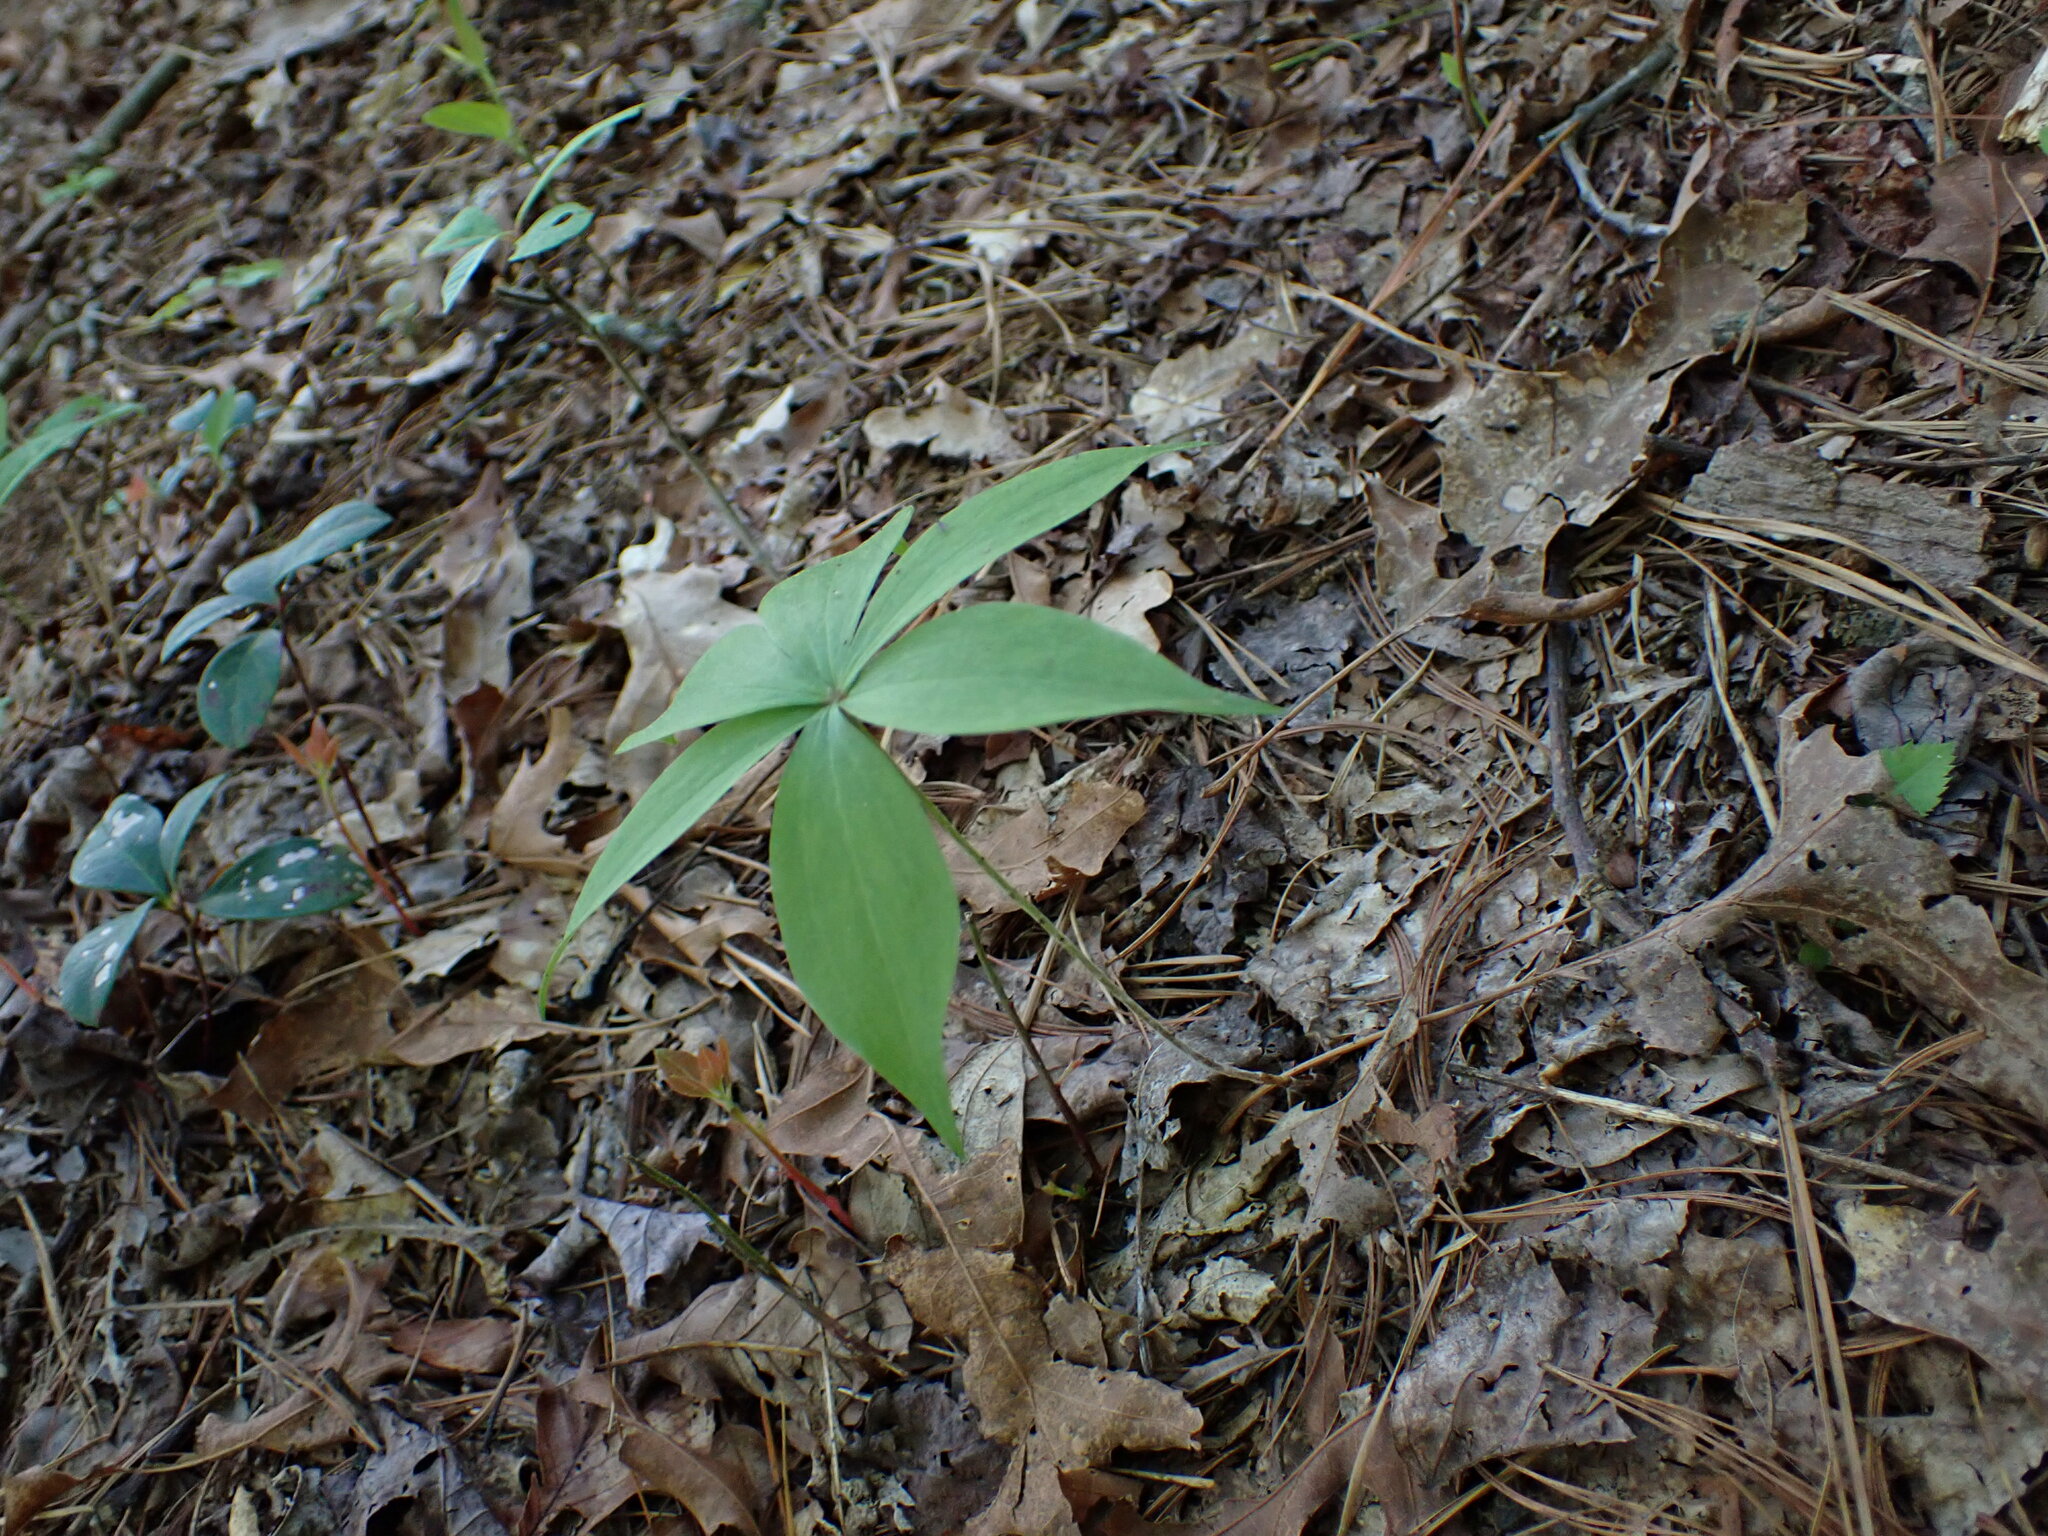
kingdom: Plantae
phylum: Tracheophyta
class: Liliopsida
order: Liliales
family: Liliaceae
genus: Medeola
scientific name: Medeola virginiana
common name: Indian cucumber-root
